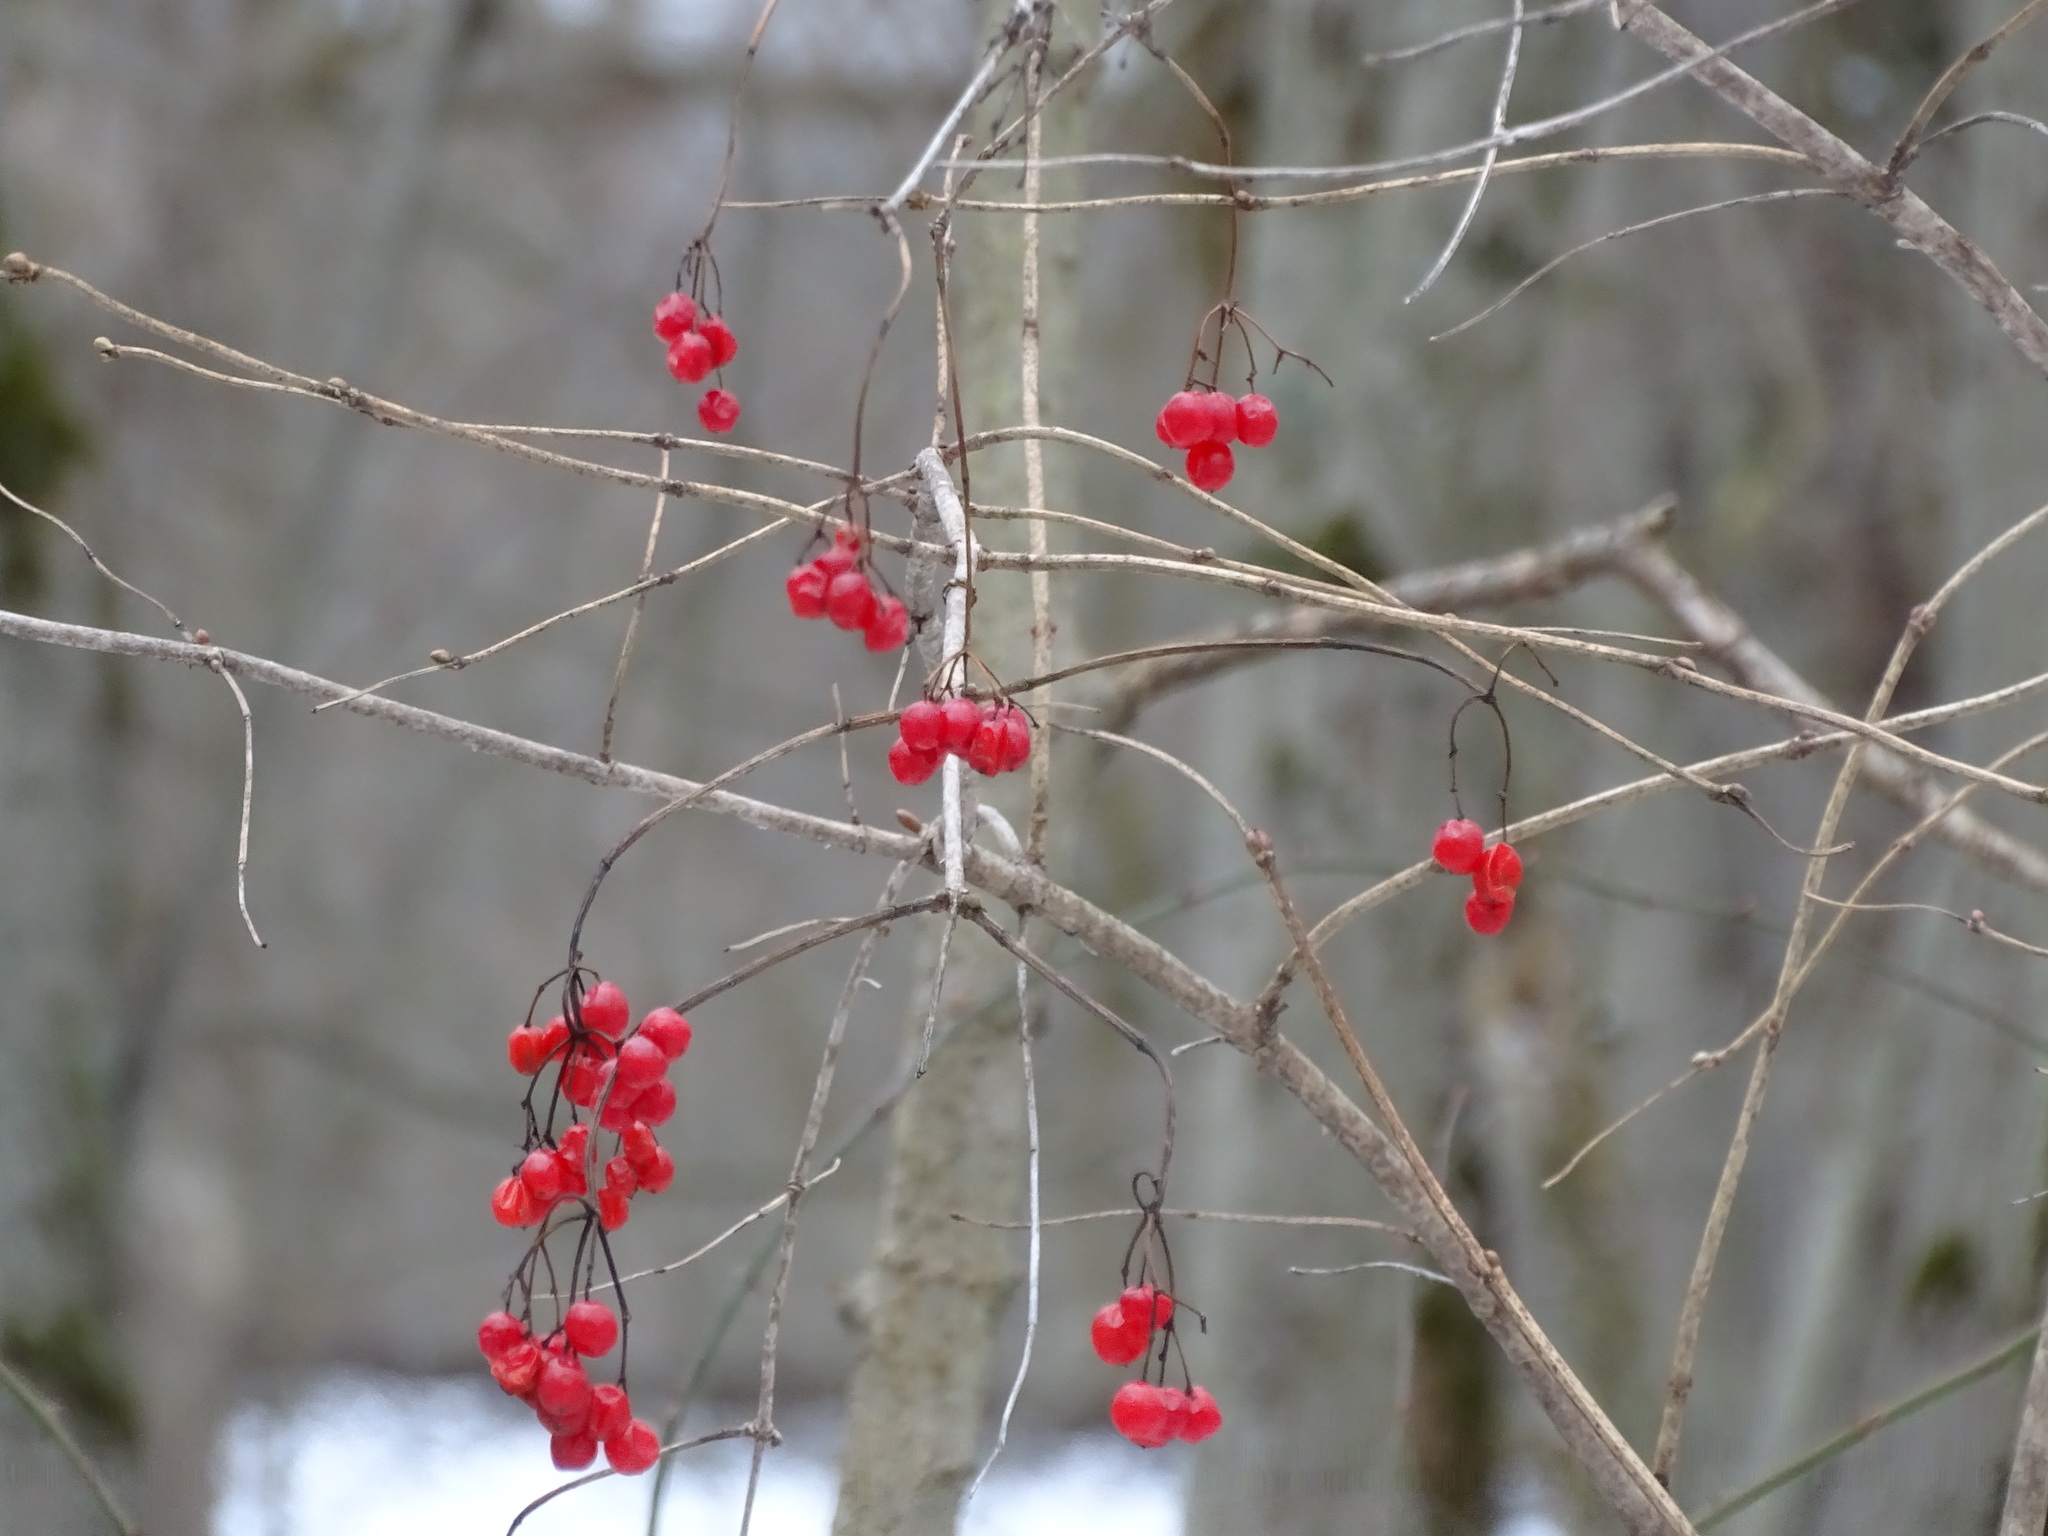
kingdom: Plantae
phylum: Tracheophyta
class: Magnoliopsida
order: Dipsacales
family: Viburnaceae
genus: Viburnum
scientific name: Viburnum opulus
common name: Guelder-rose
